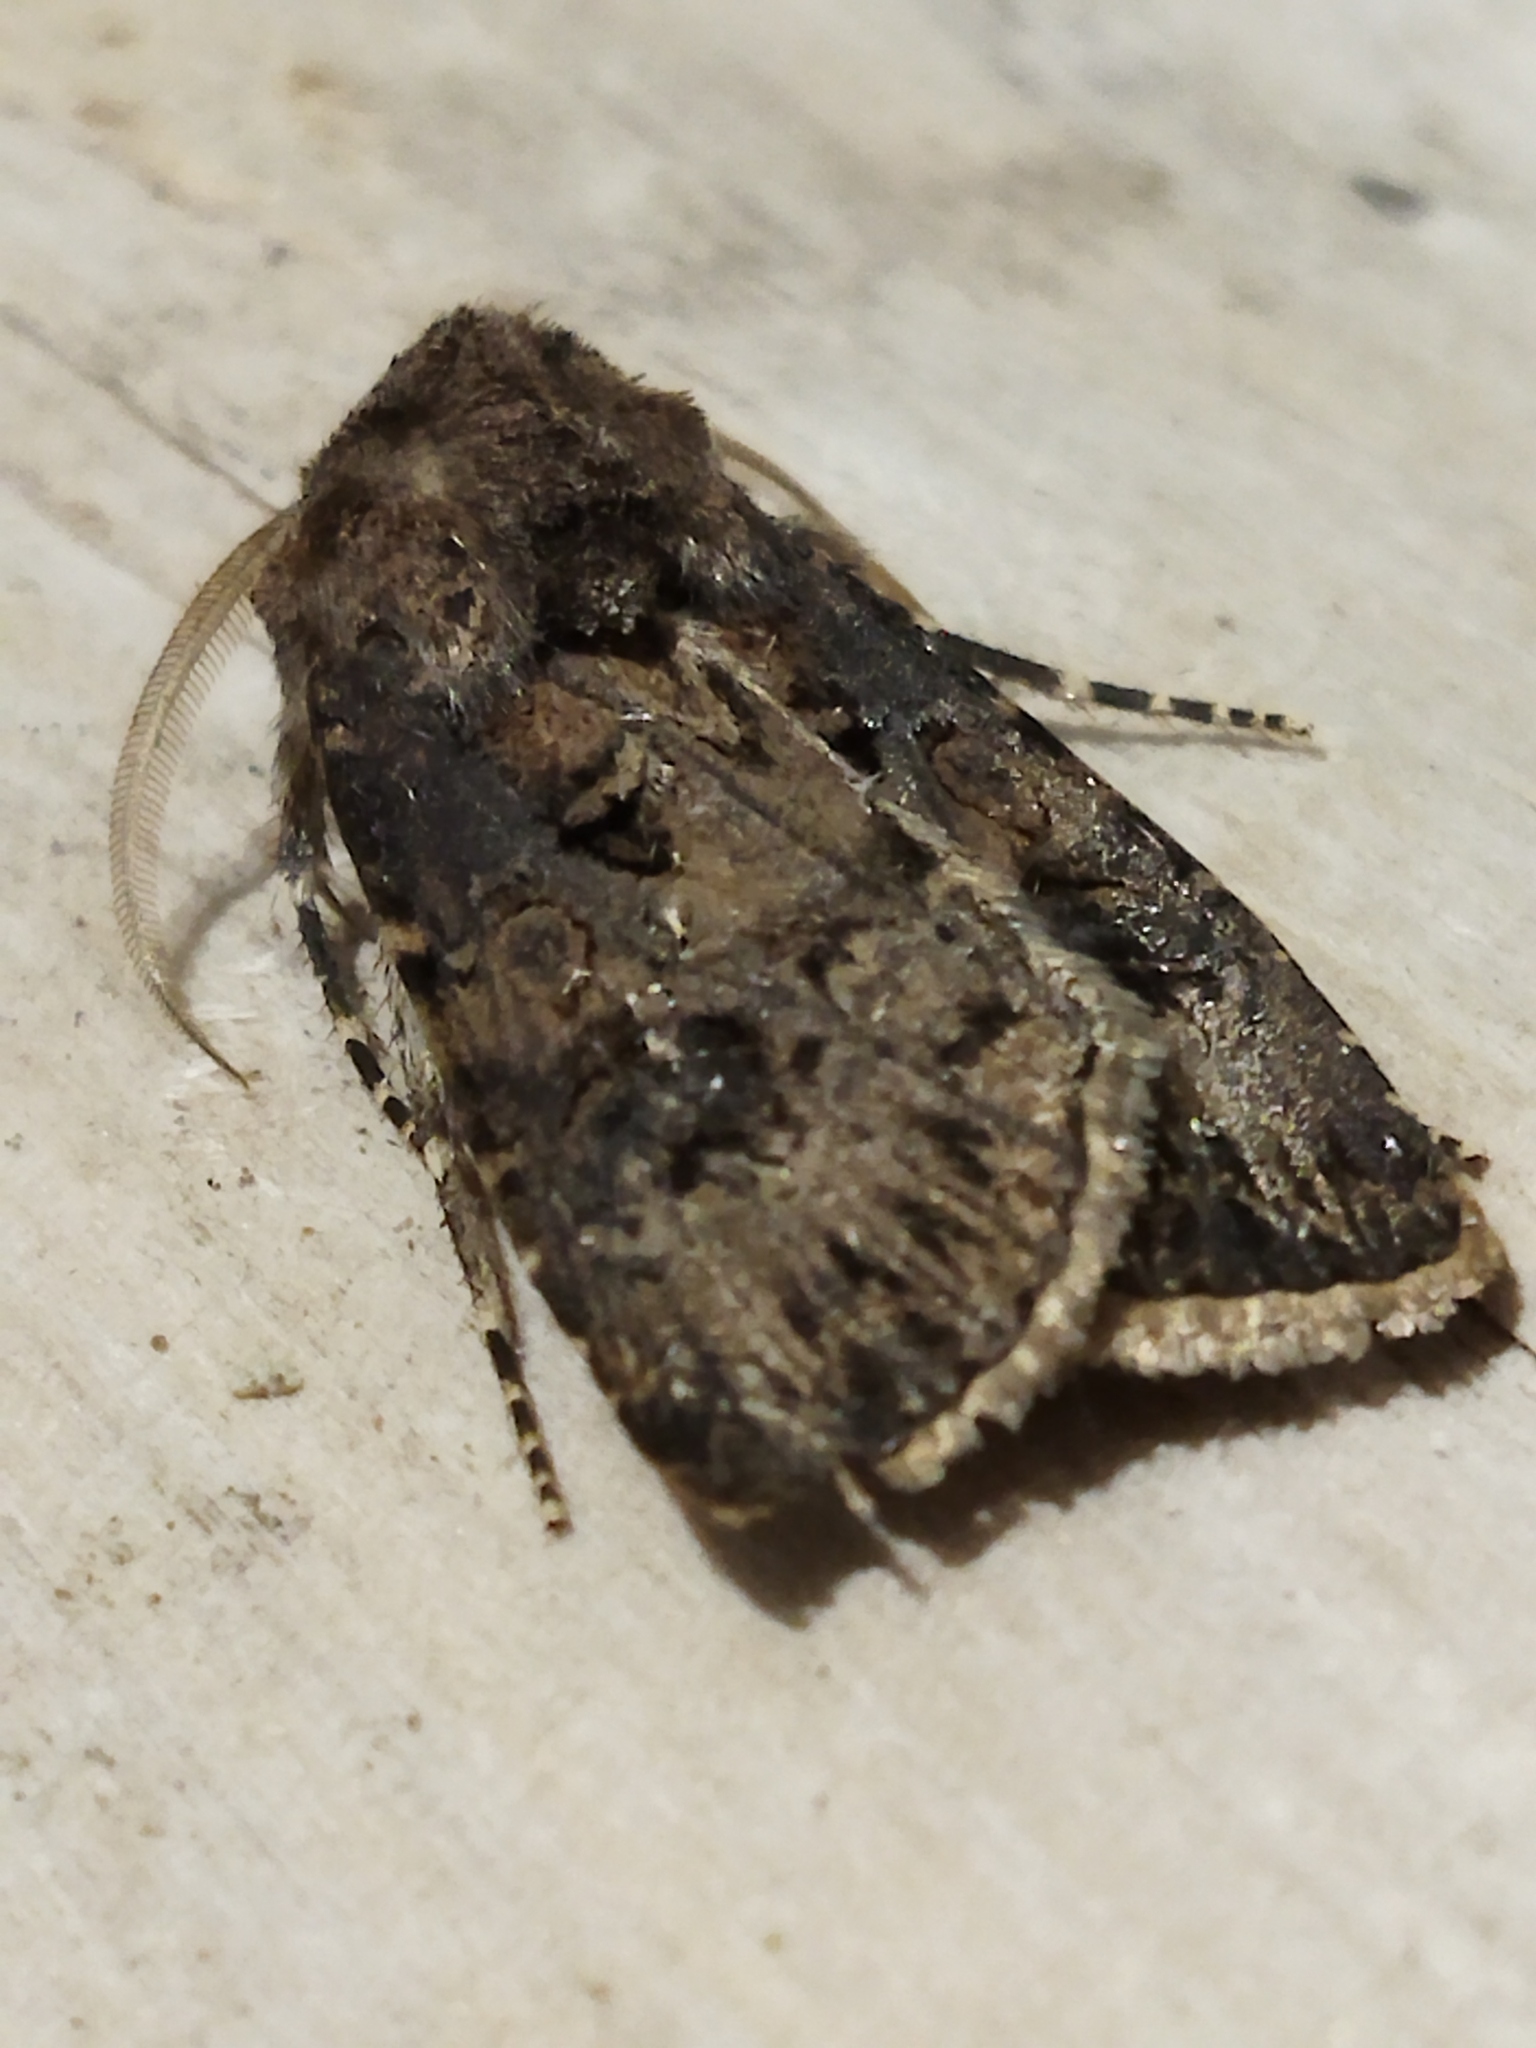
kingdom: Animalia
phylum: Arthropoda
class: Insecta
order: Lepidoptera
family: Noctuidae
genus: Agrotis
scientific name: Agrotis bigramma
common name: Great dart
